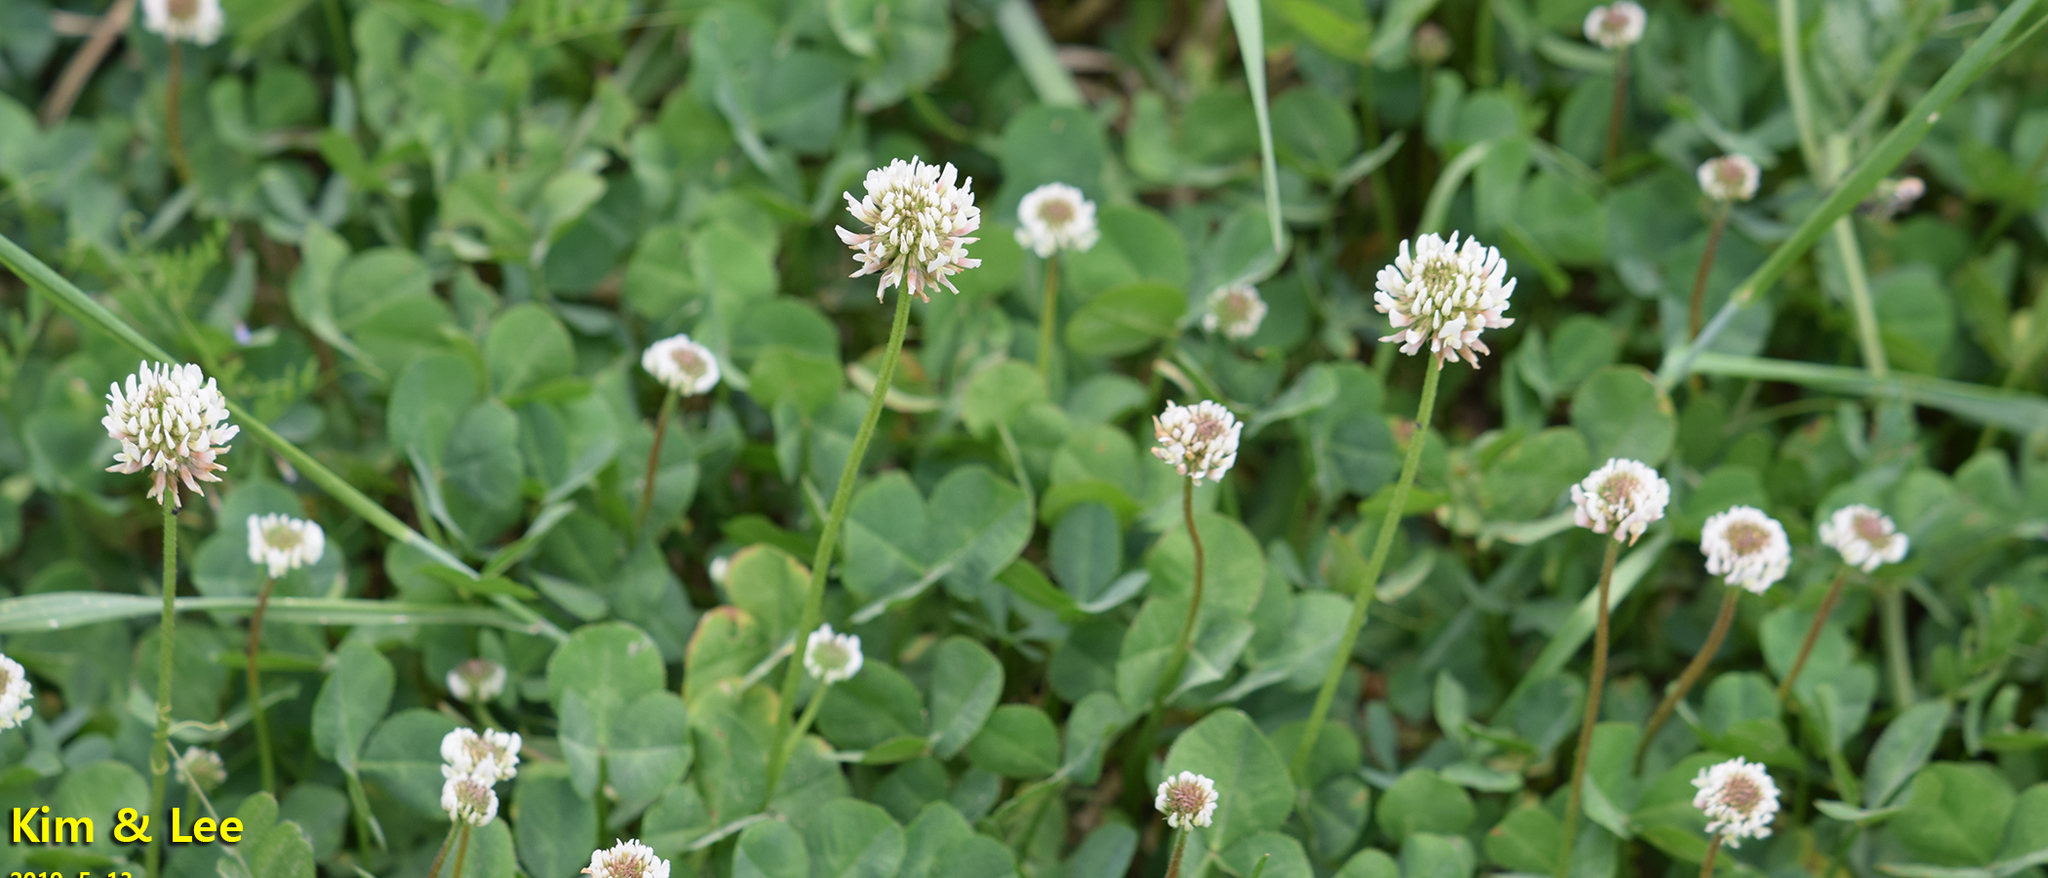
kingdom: Plantae
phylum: Tracheophyta
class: Magnoliopsida
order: Fabales
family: Fabaceae
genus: Trifolium
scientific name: Trifolium repens
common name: White clover
